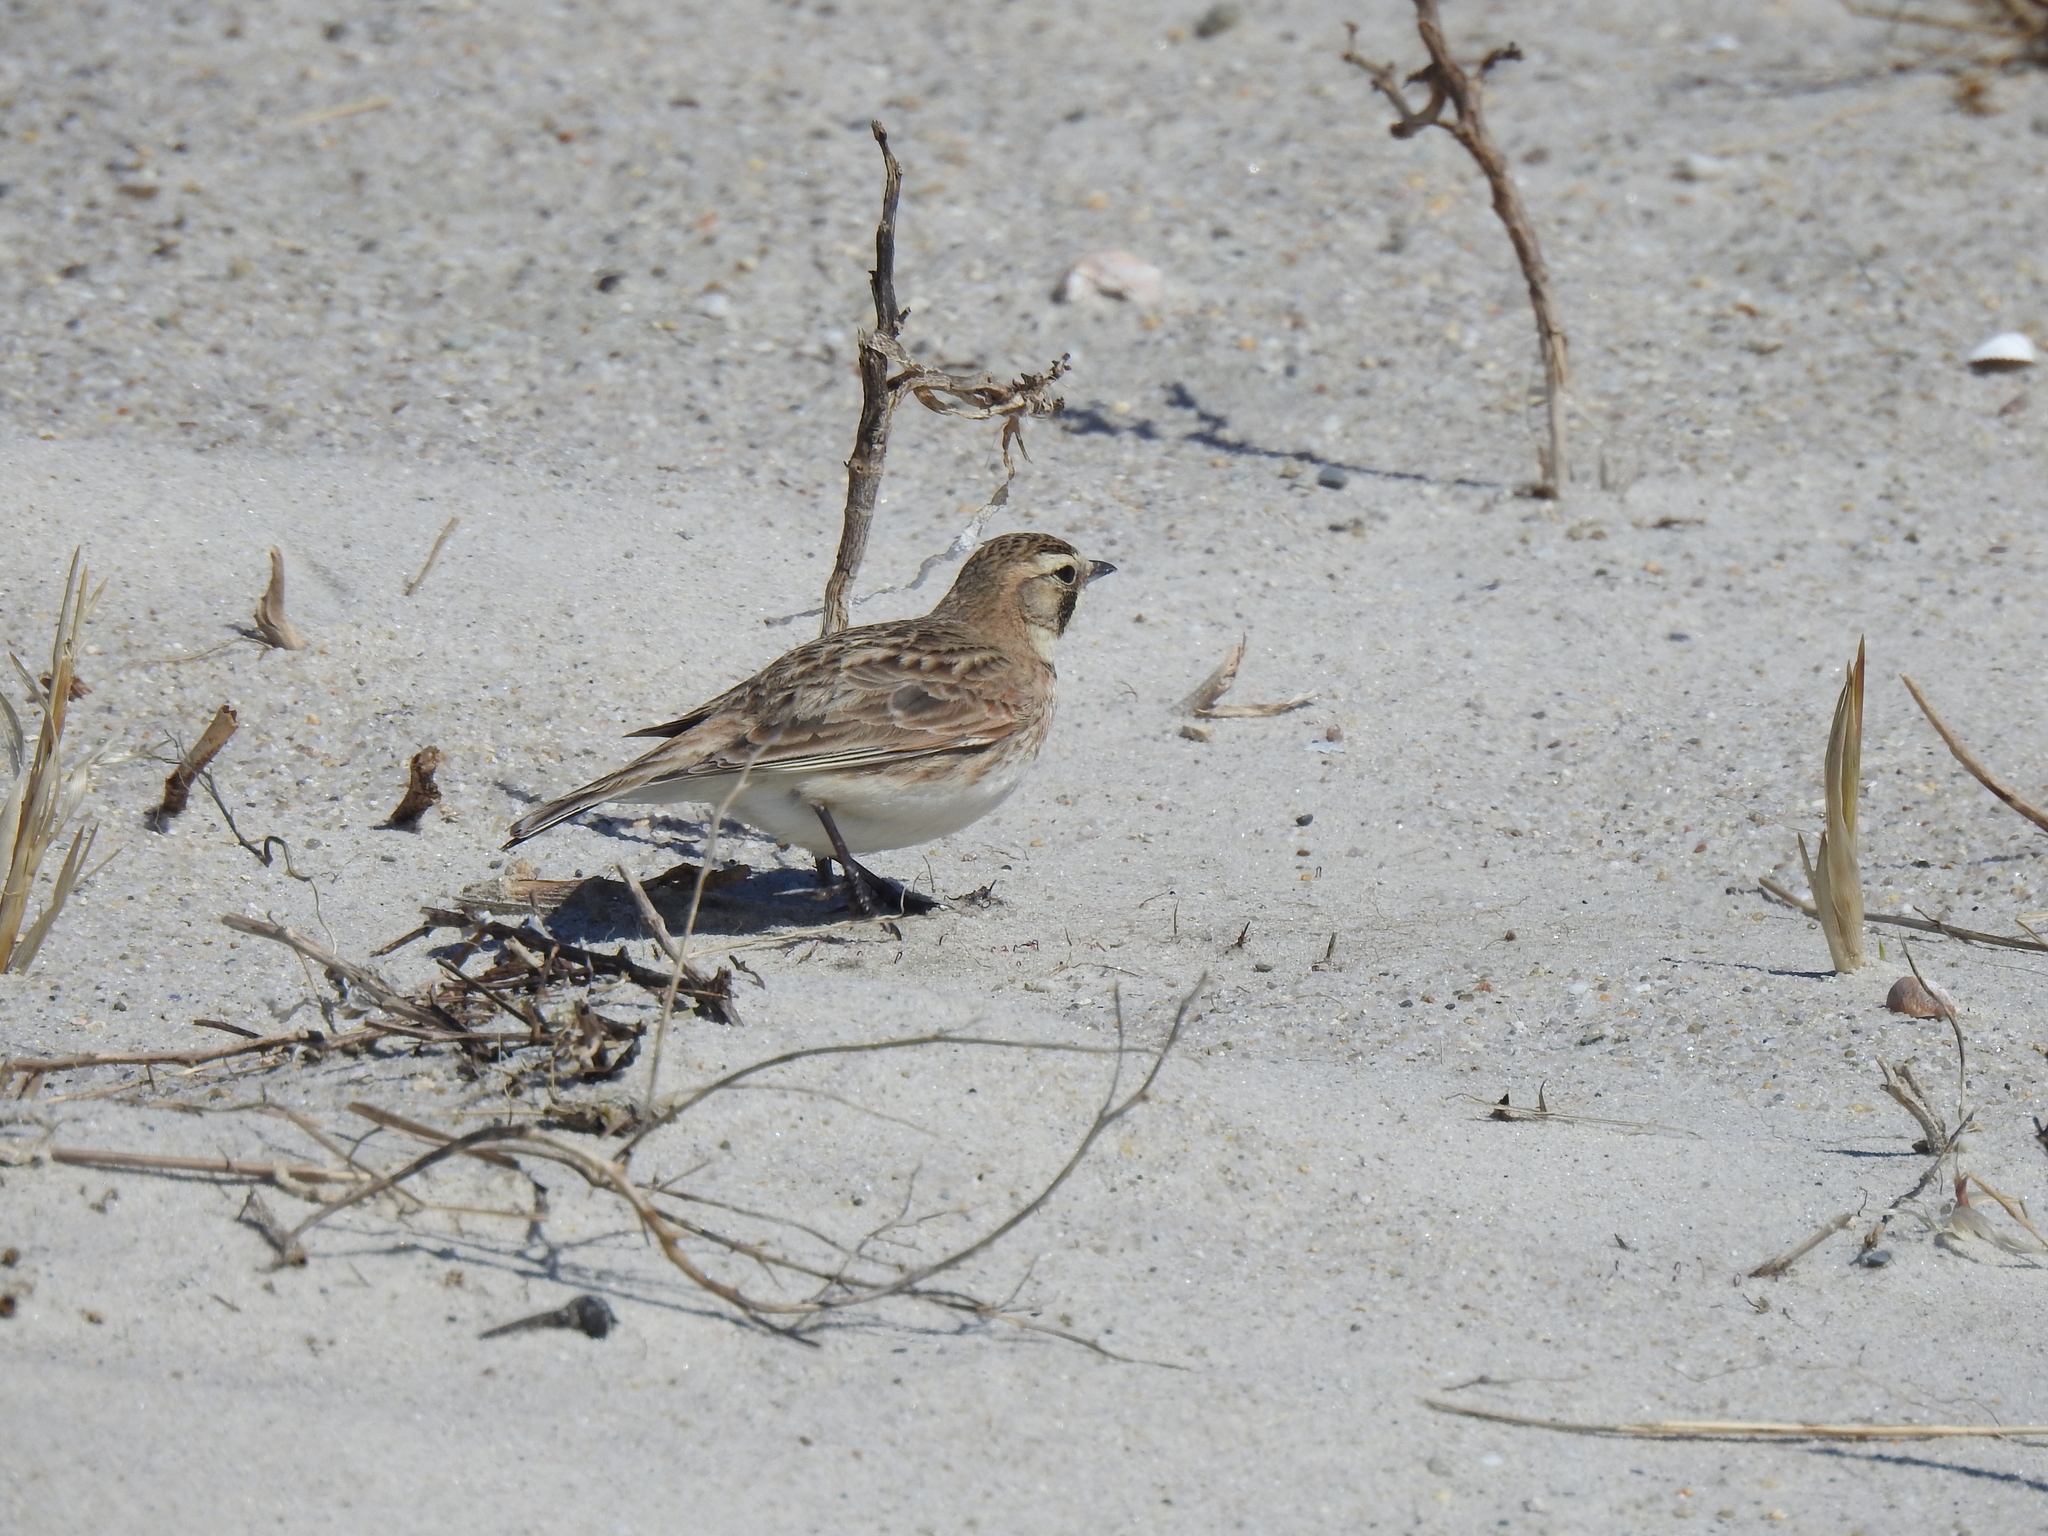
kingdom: Animalia
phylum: Chordata
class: Aves
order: Passeriformes
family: Alaudidae
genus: Eremophila
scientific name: Eremophila alpestris
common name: Horned lark
